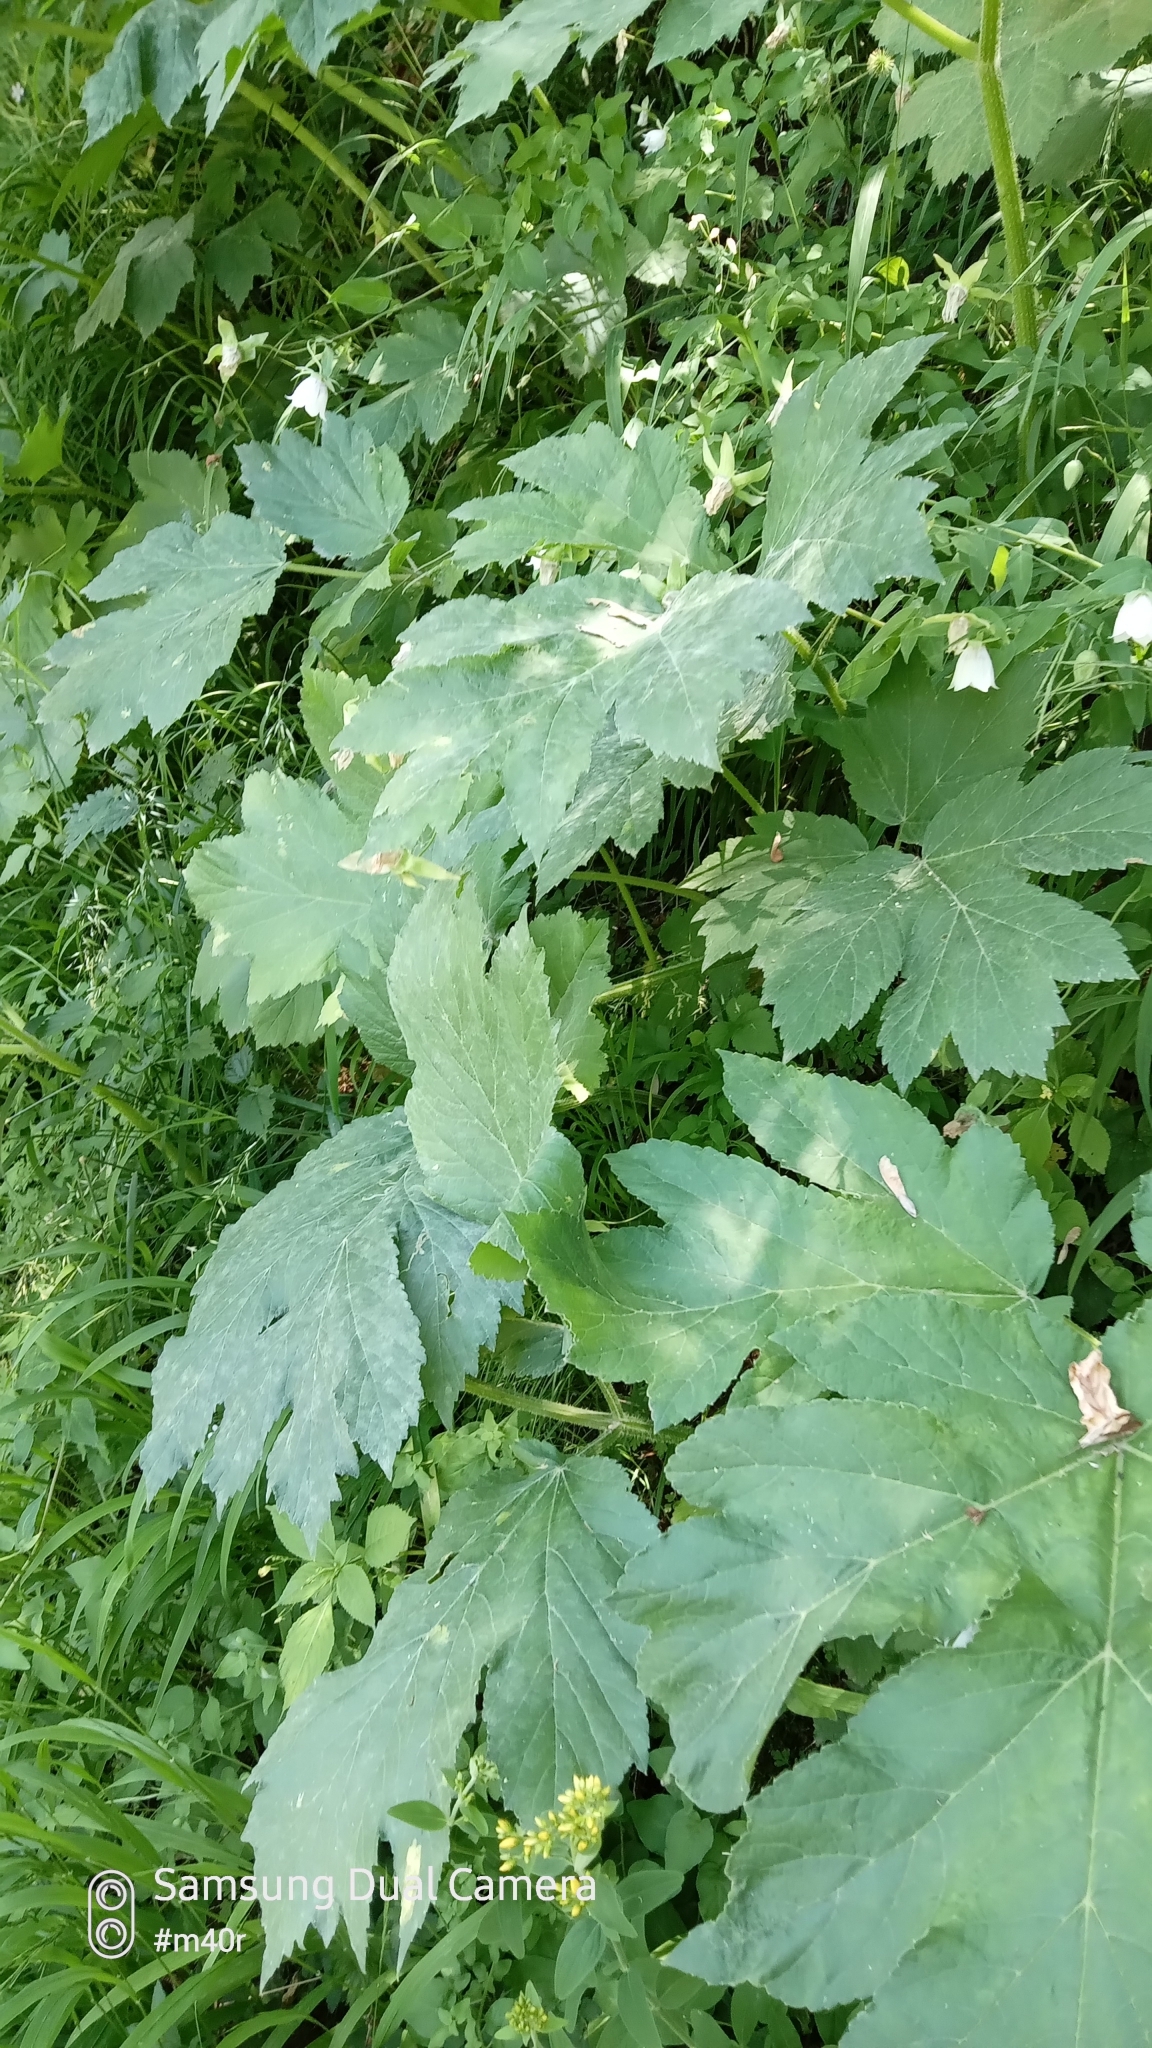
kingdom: Plantae
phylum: Tracheophyta
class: Magnoliopsida
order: Apiales
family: Apiaceae
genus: Heracleum
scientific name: Heracleum dissectum
